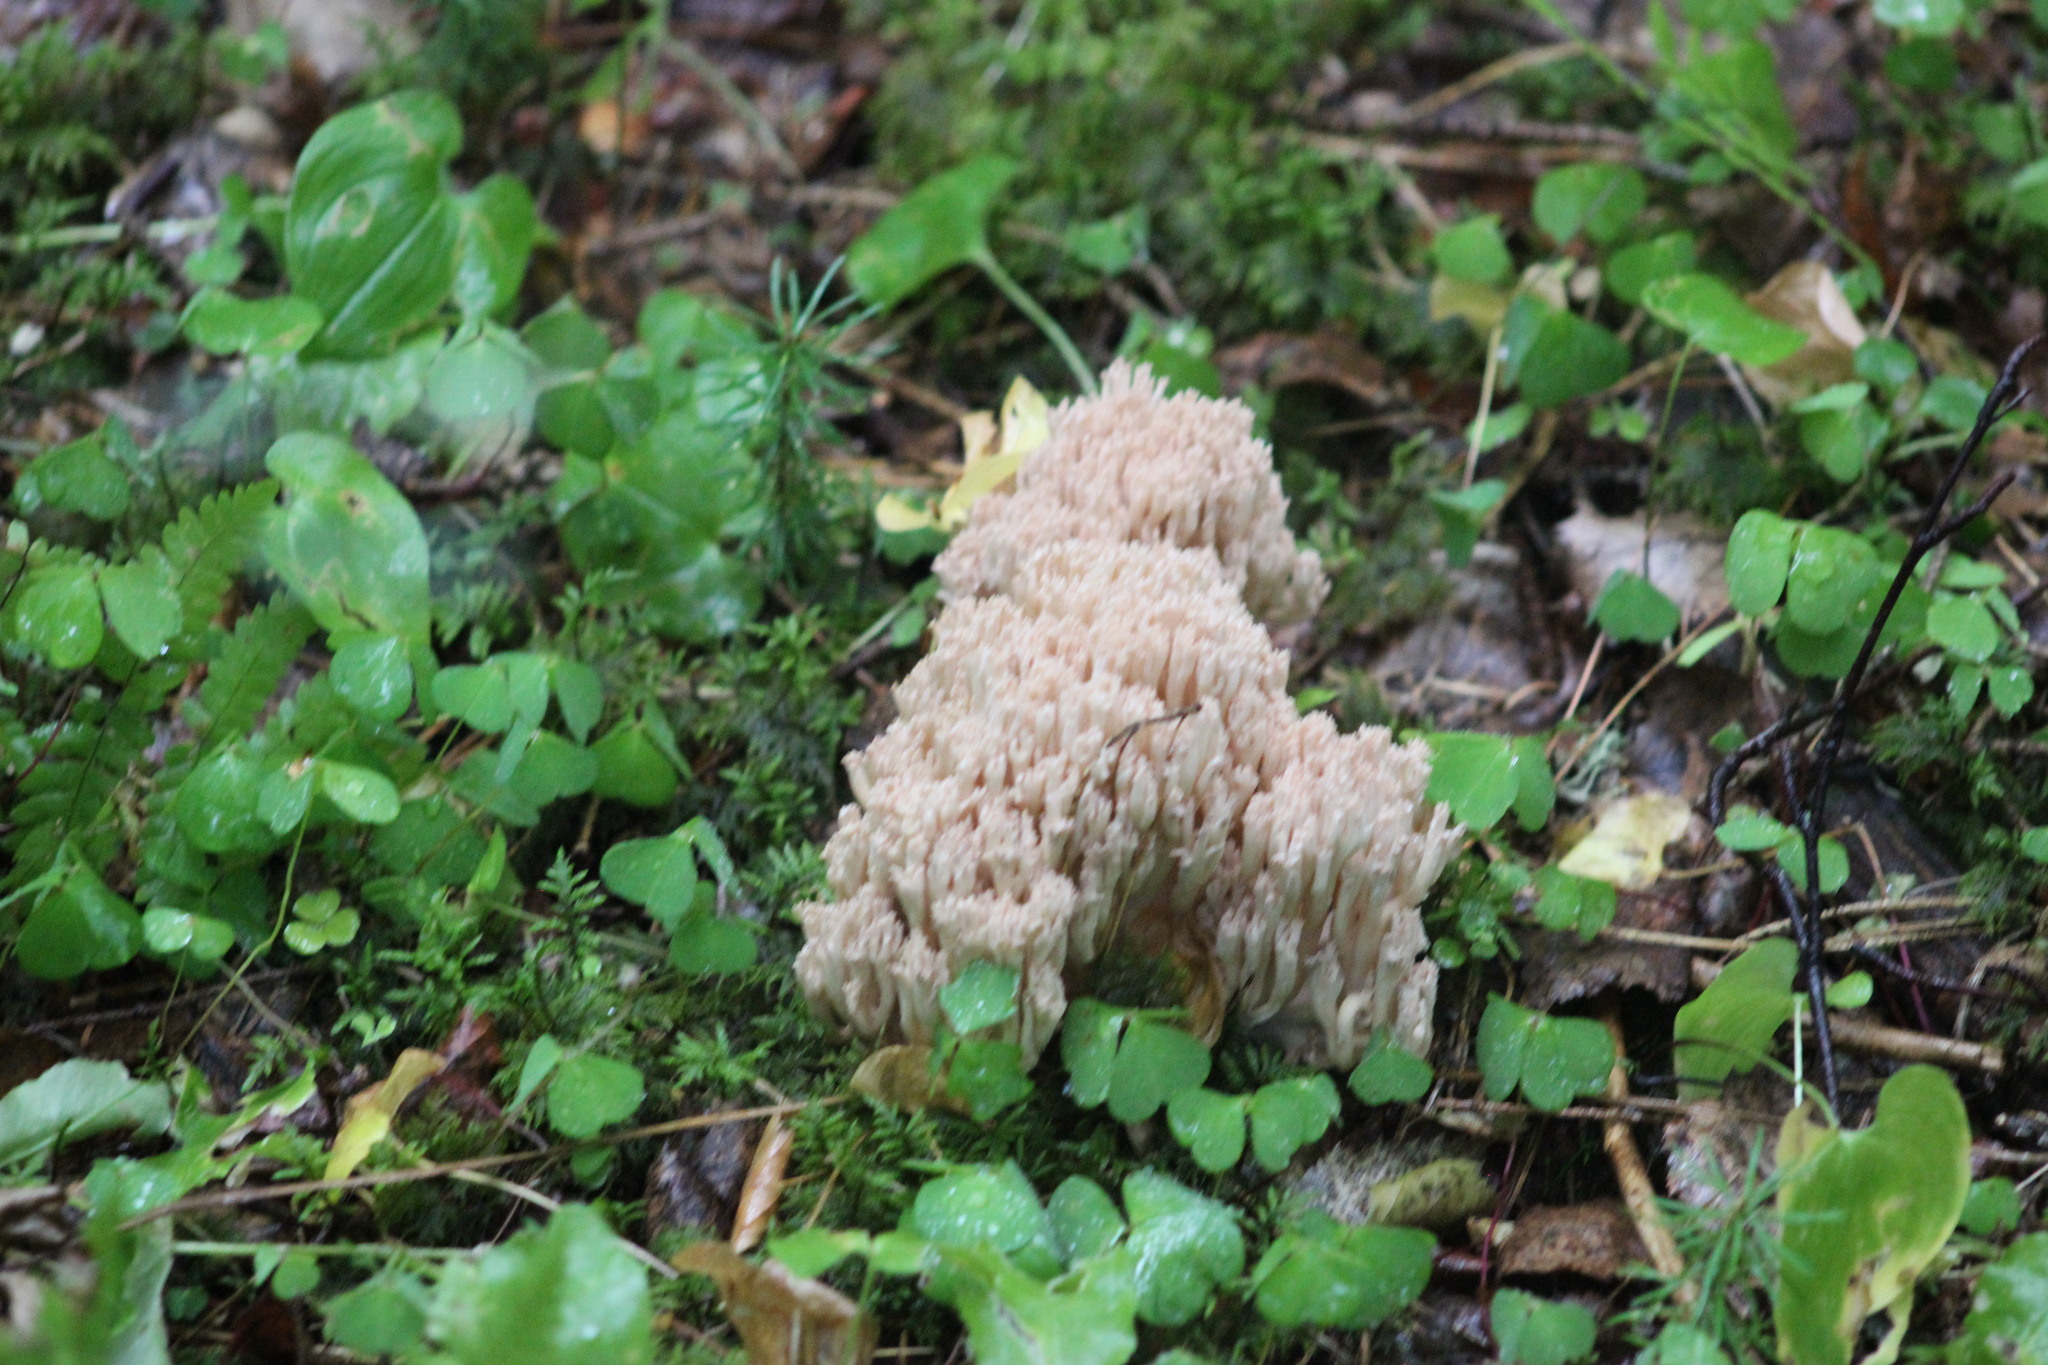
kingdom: Fungi
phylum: Basidiomycota
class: Agaricomycetes
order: Gomphales
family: Gomphaceae
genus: Ramaria
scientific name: Ramaria pallida
